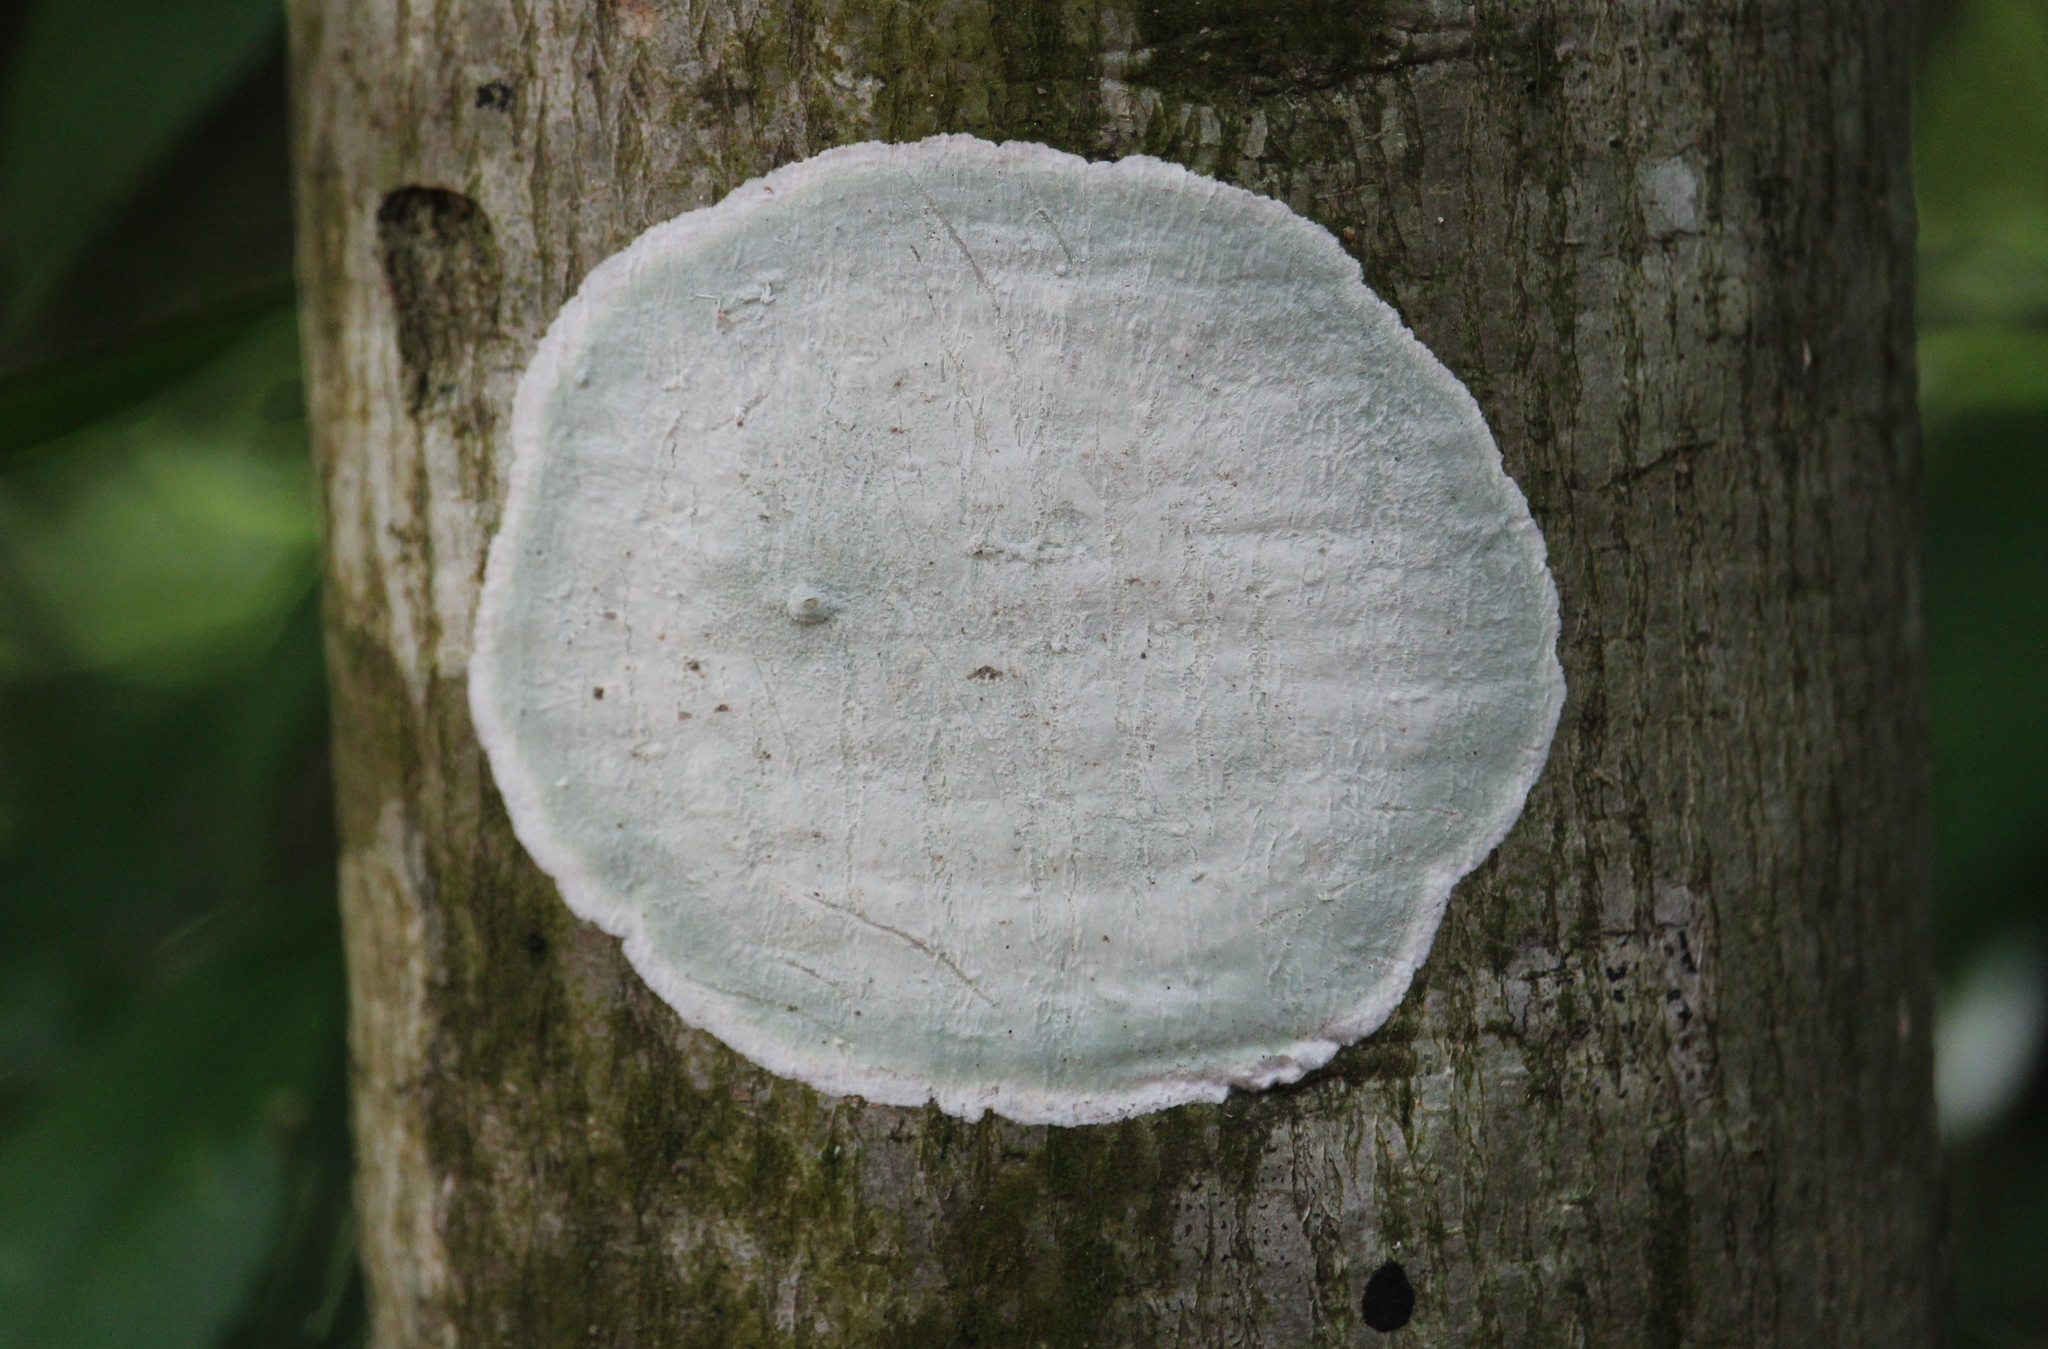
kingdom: Fungi
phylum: Ascomycota
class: Arthoniomycetes
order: Arthoniales
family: Arthoniaceae
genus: Cryptothecia
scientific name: Cryptothecia striata
